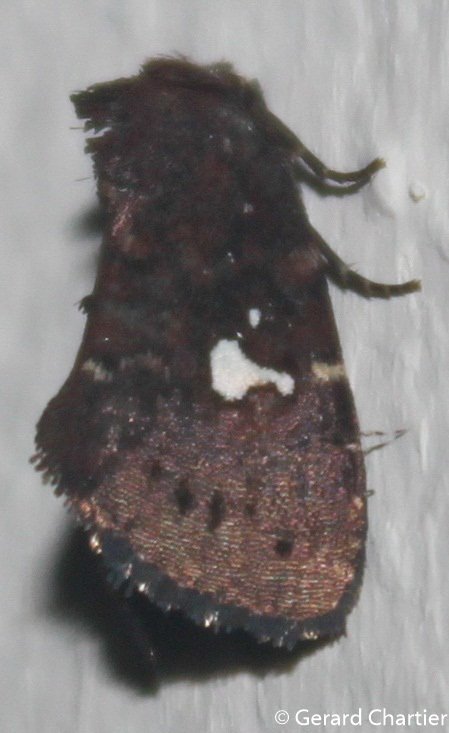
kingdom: Animalia
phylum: Arthropoda
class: Insecta
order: Lepidoptera
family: Noctuidae
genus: Elusa
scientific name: Elusa puncticeps
